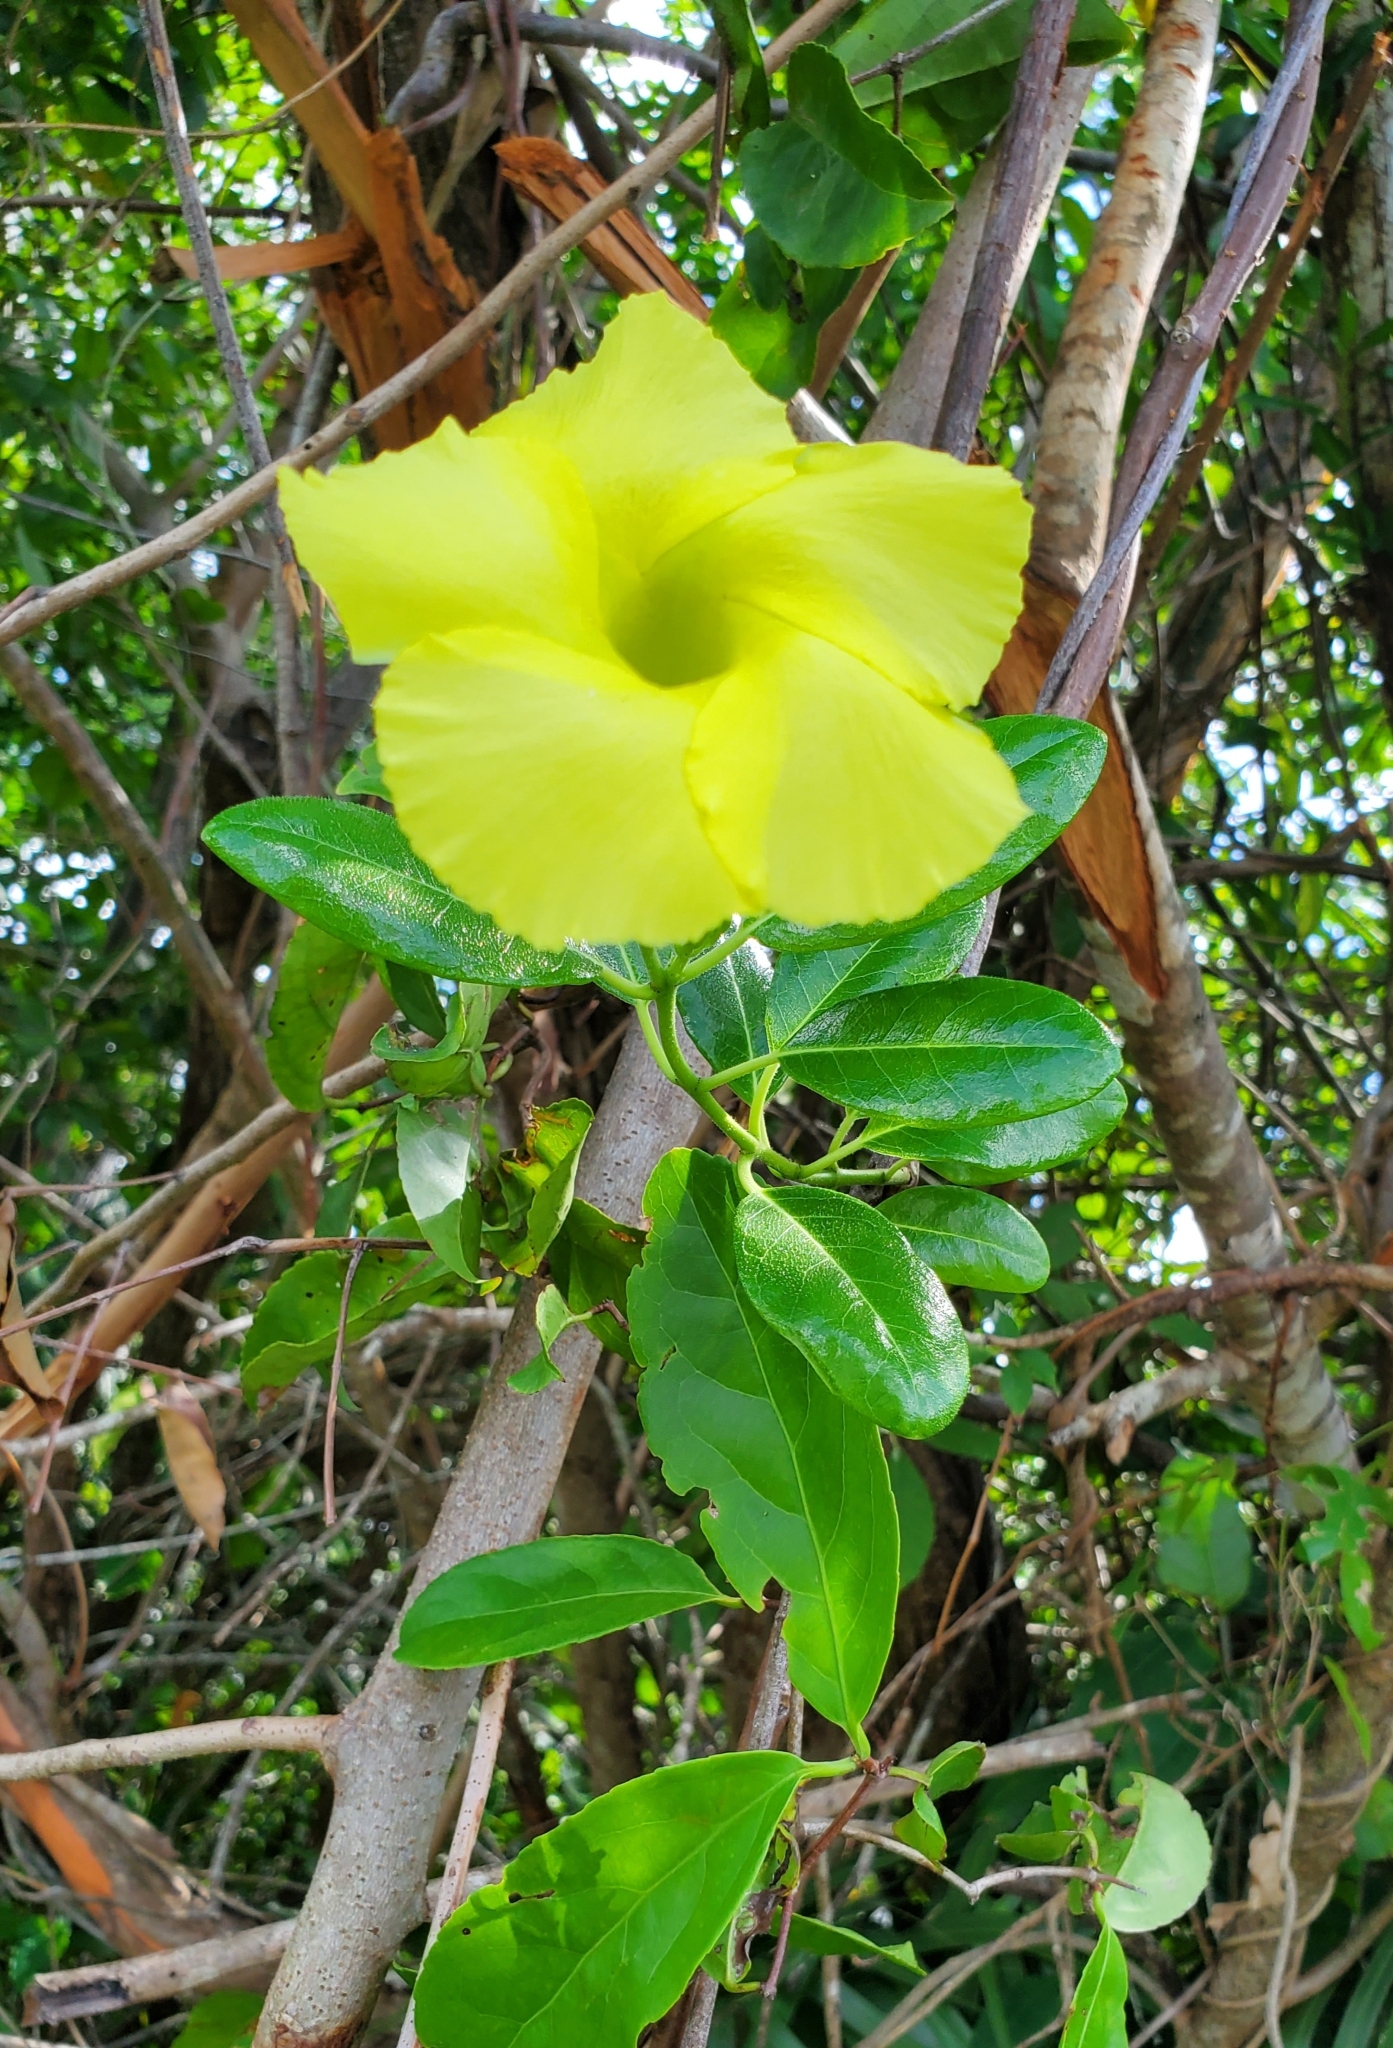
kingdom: Plantae
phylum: Tracheophyta
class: Magnoliopsida
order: Gentianales
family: Apocynaceae
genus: Pentalinon
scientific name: Pentalinon luteum
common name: Licebush
